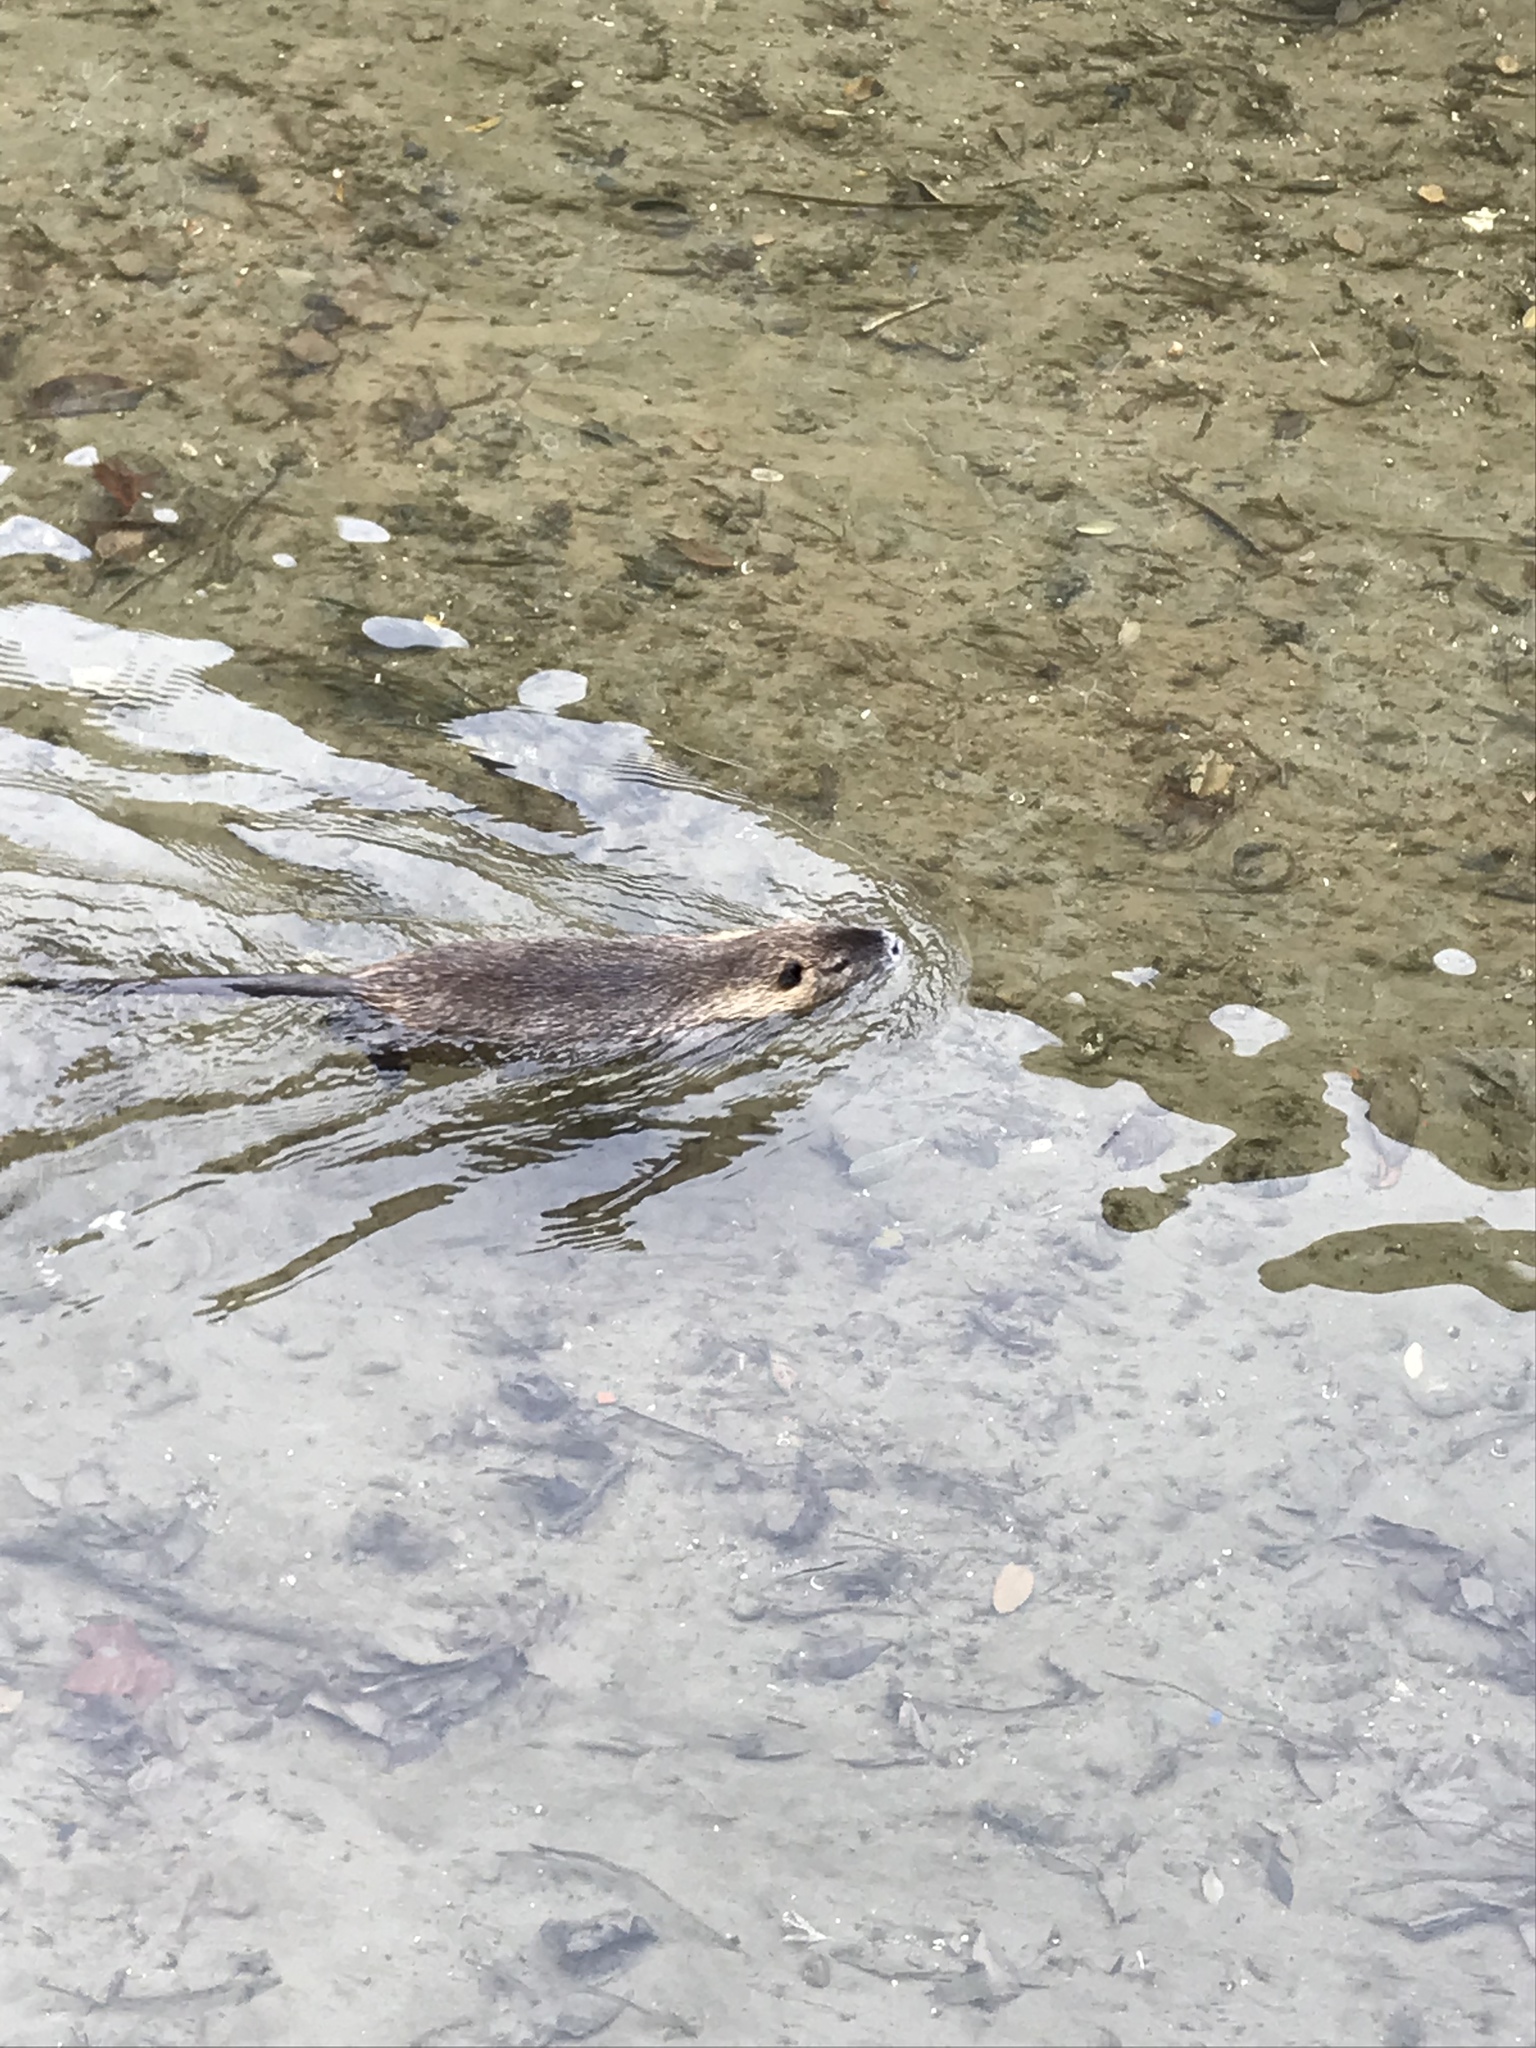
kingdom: Animalia
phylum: Chordata
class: Mammalia
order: Rodentia
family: Myocastoridae
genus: Myocastor
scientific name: Myocastor coypus
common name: Coypu
